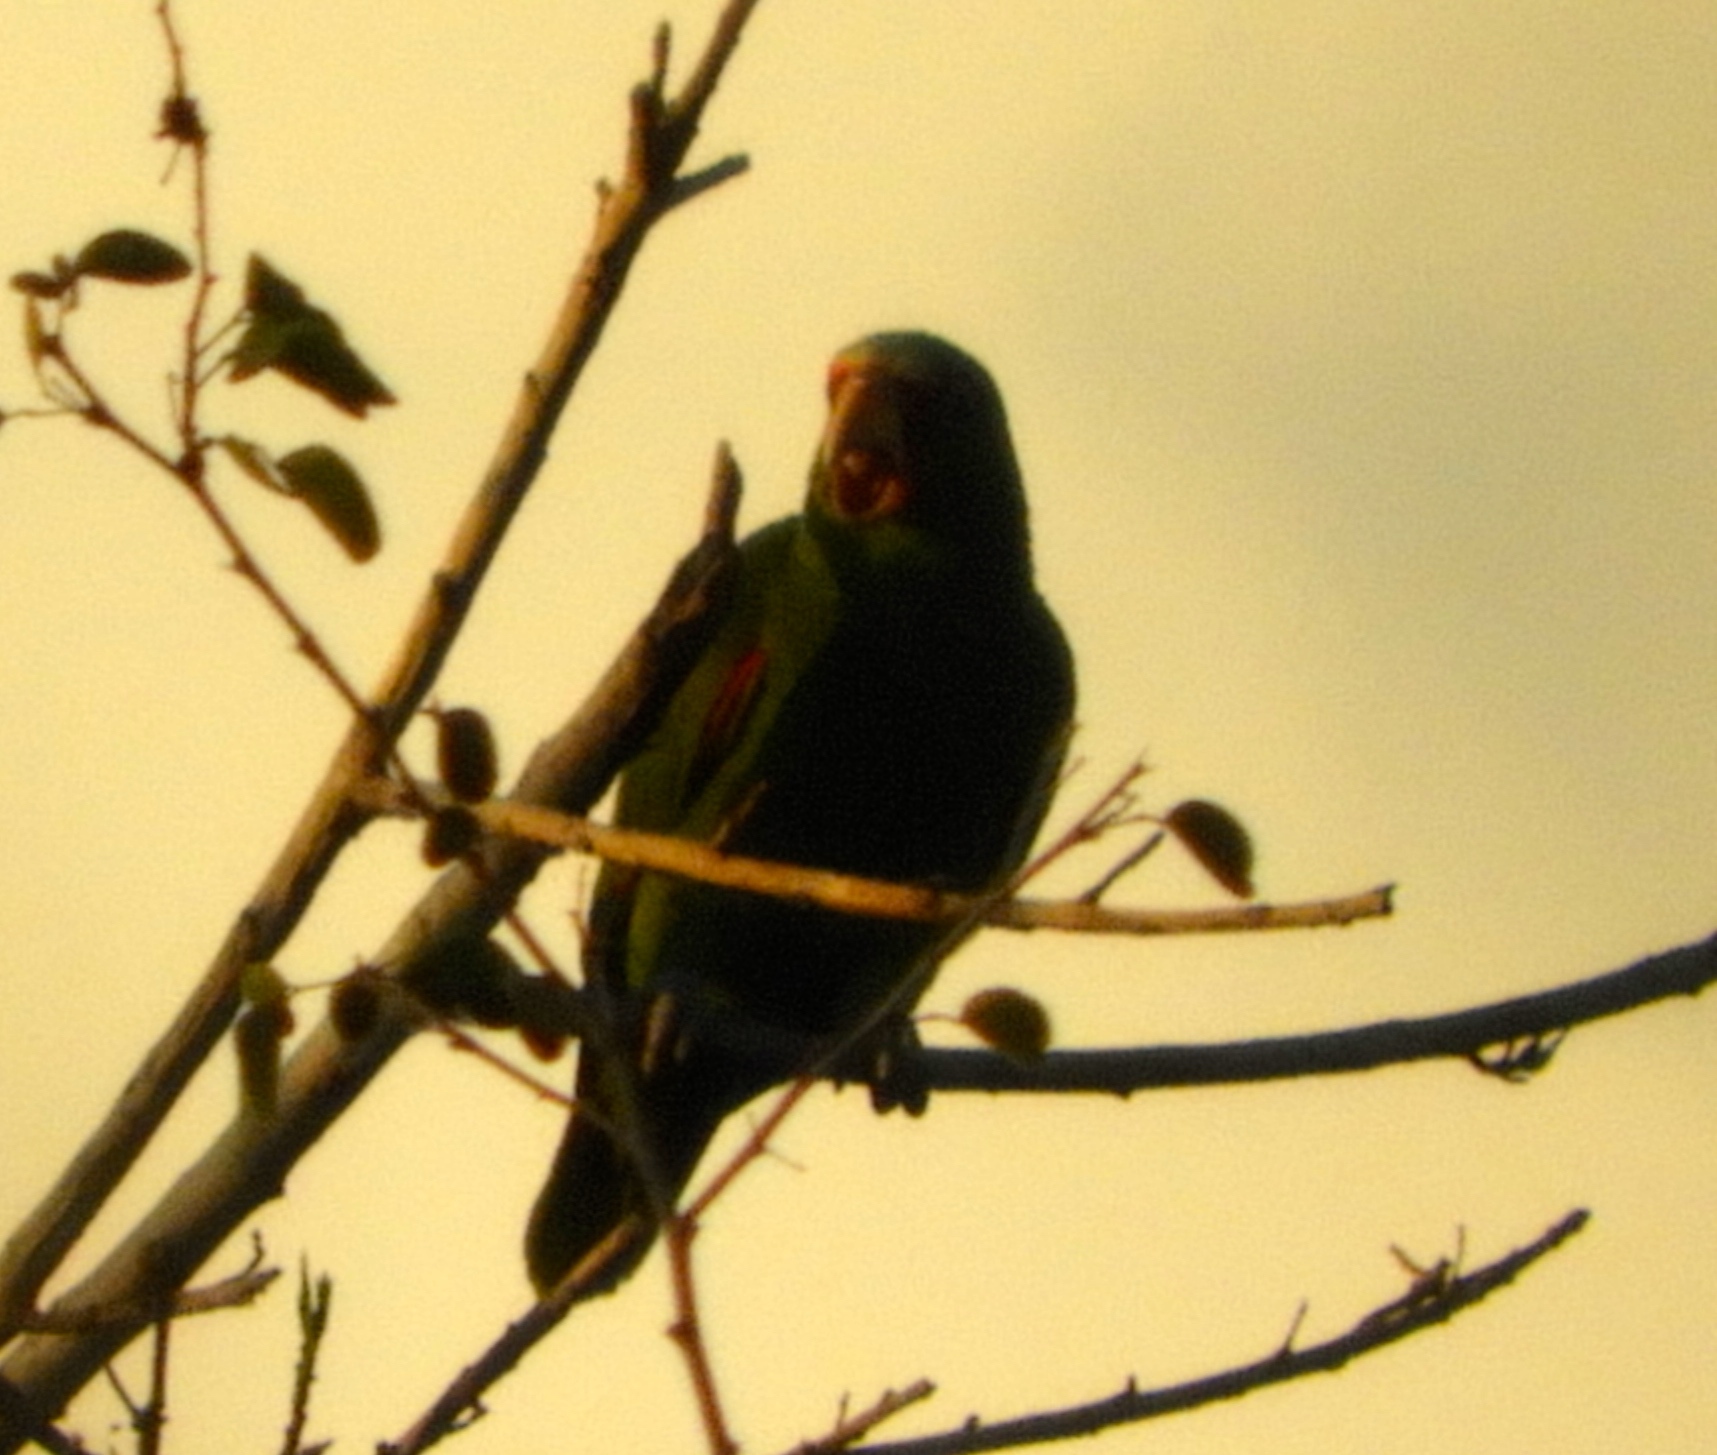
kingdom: Animalia
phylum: Chordata
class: Aves
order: Psittaciformes
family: Psittacidae
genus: Amazona
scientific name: Amazona albifrons
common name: White-fronted amazon
